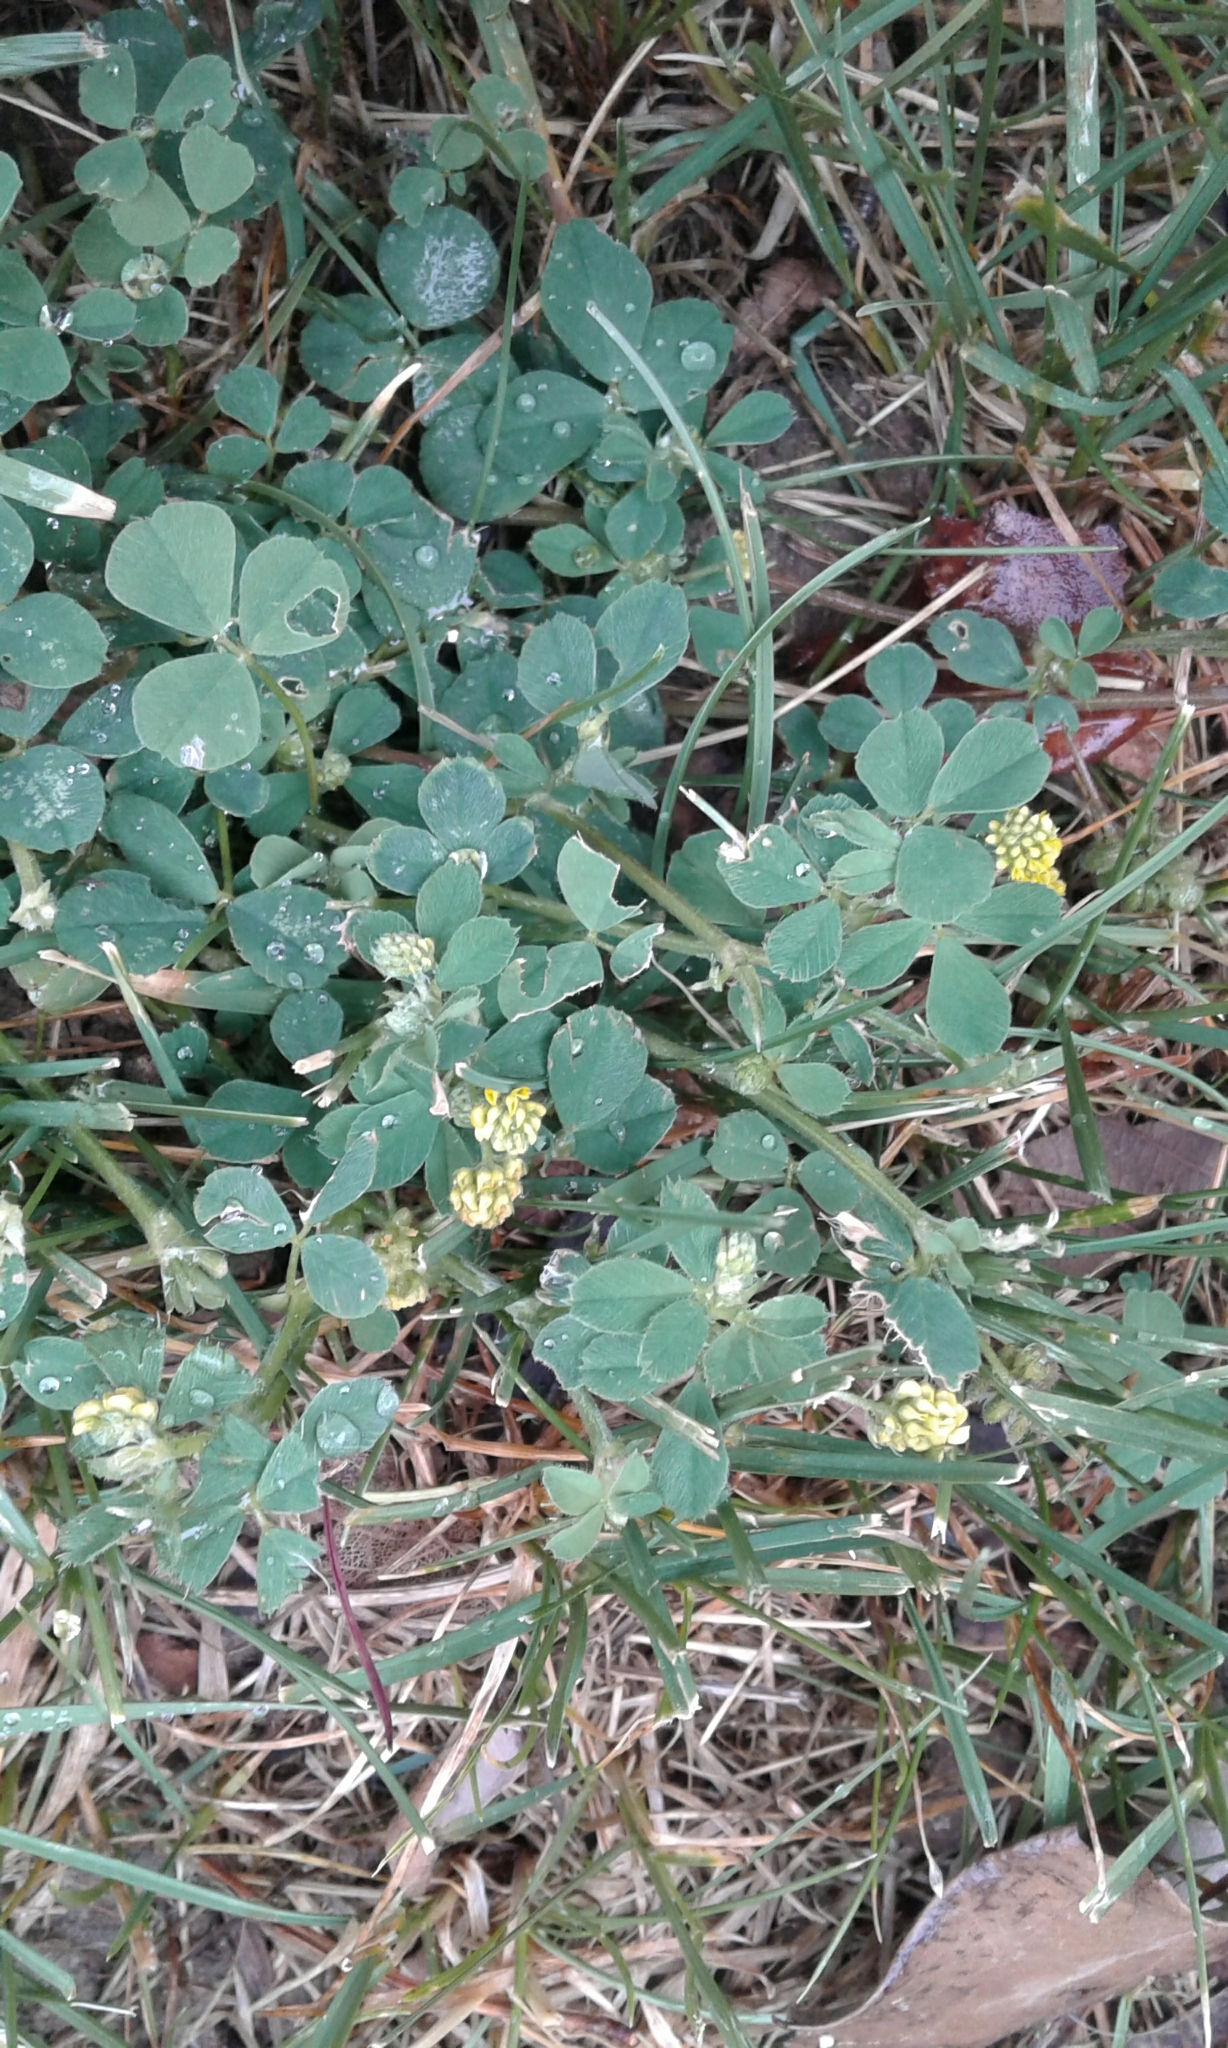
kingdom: Plantae
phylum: Tracheophyta
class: Magnoliopsida
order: Fabales
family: Fabaceae
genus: Medicago
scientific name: Medicago lupulina
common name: Black medick
